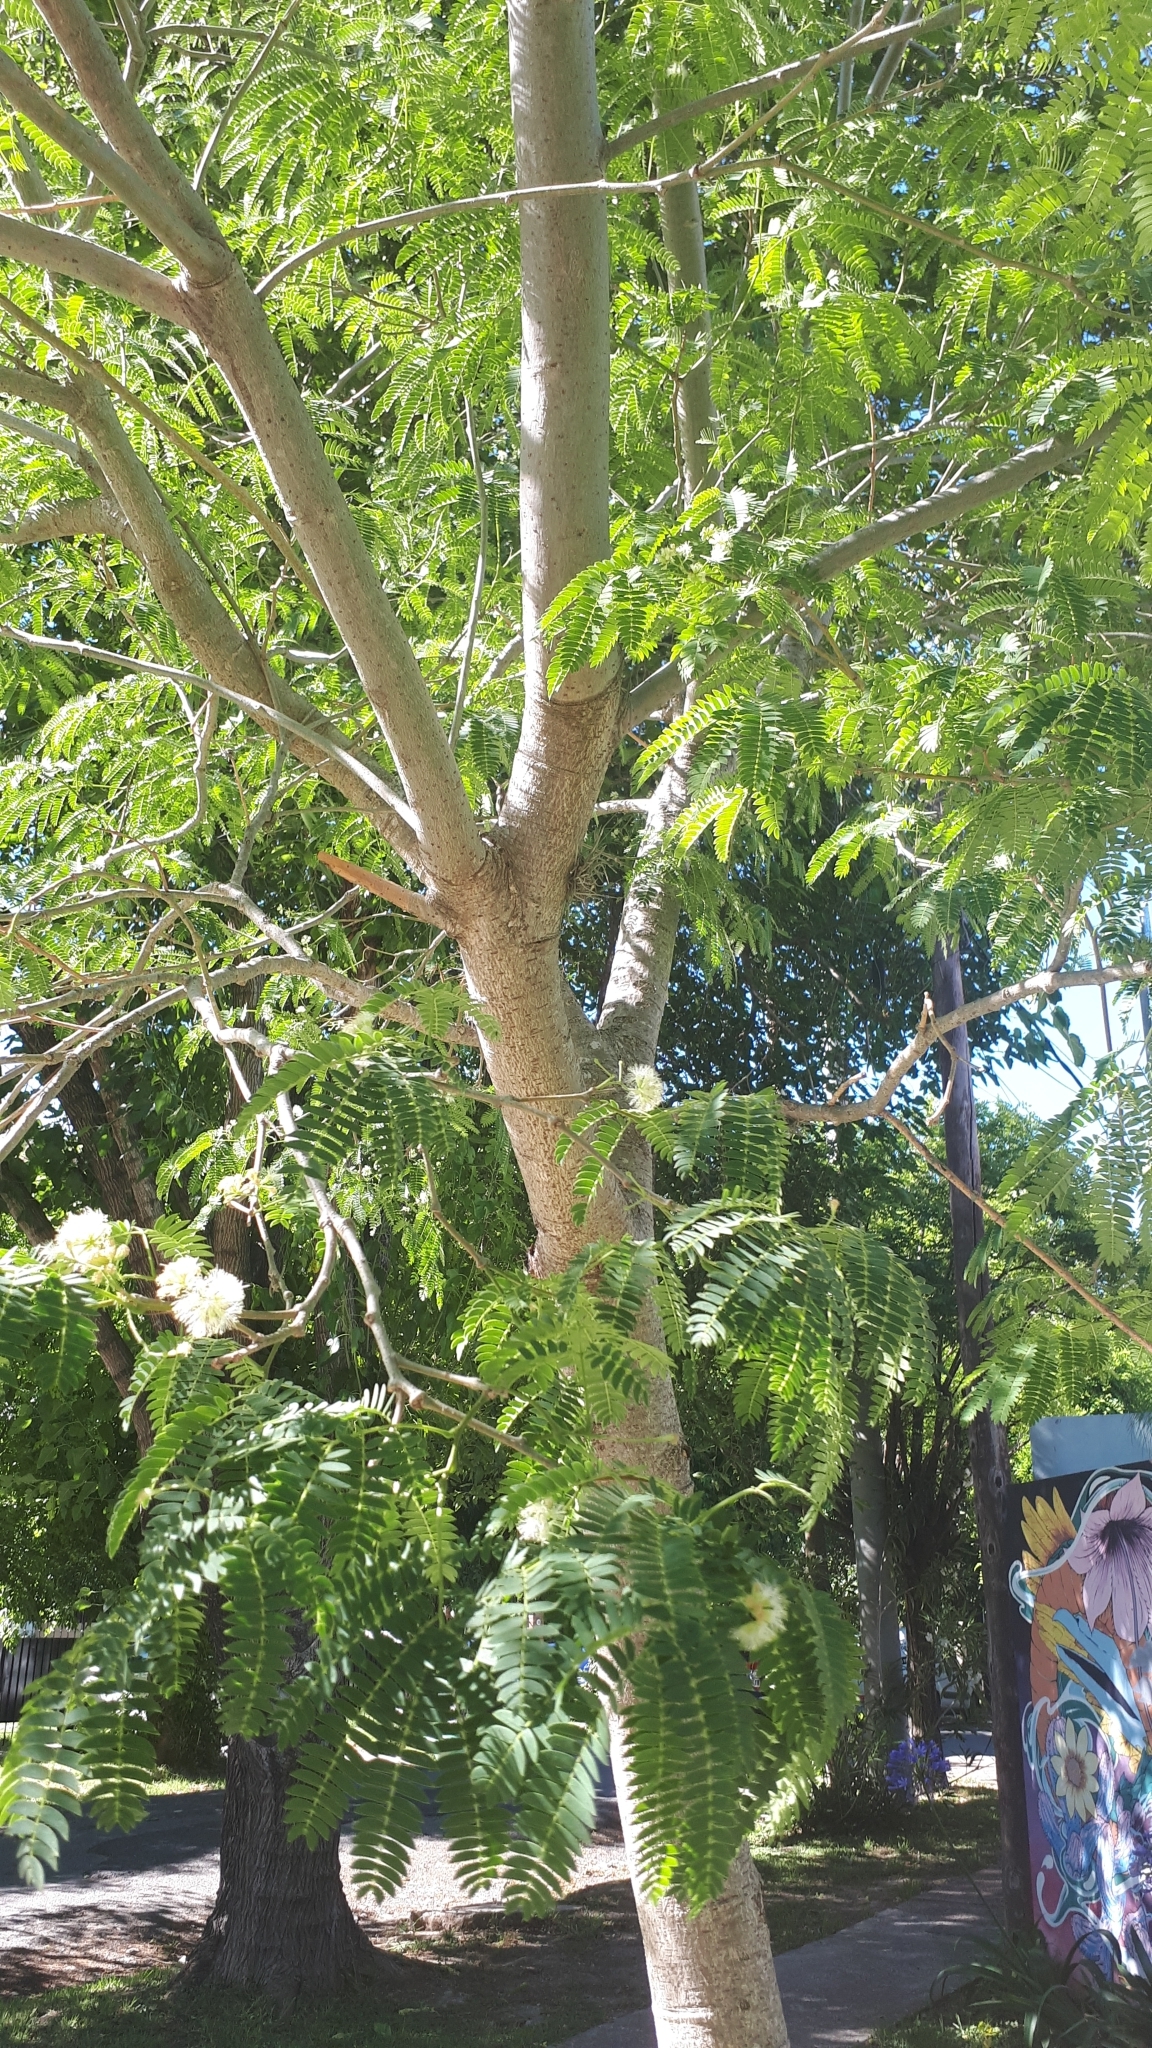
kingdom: Plantae
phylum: Tracheophyta
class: Magnoliopsida
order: Fabales
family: Fabaceae
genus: Enterolobium
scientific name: Enterolobium contortisiliquum
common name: Pacara earpod tree
